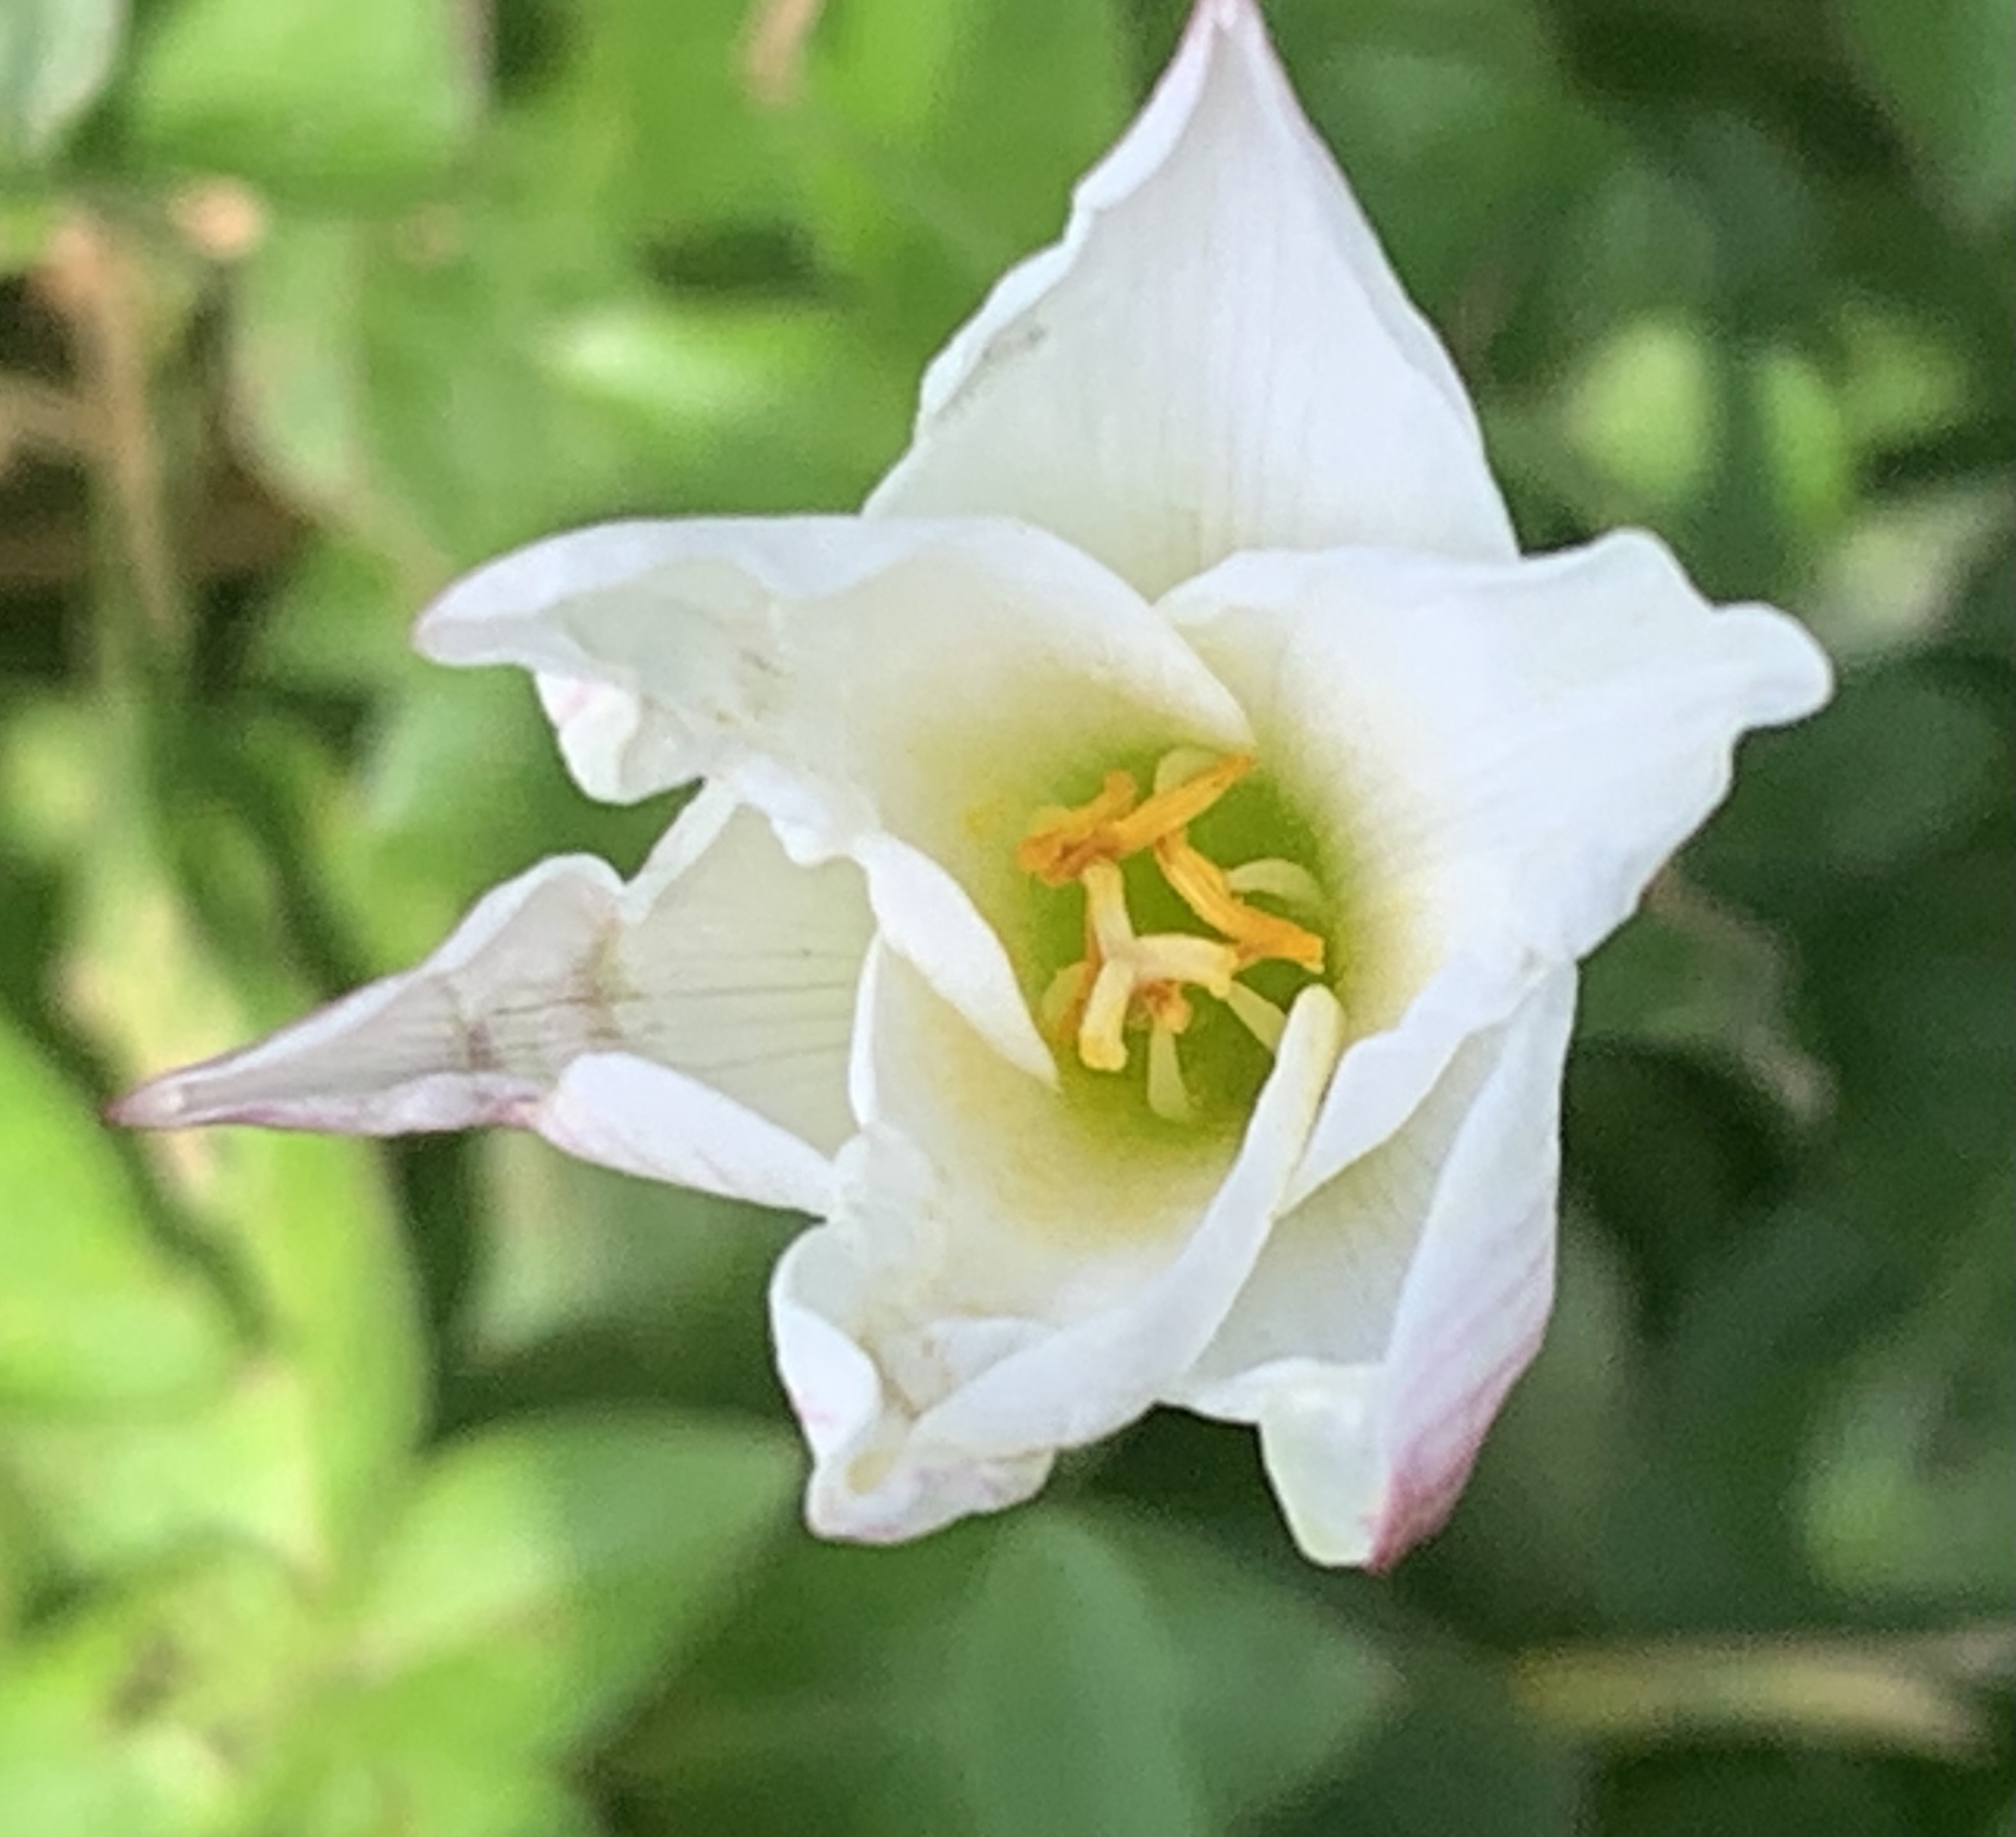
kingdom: Plantae
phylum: Tracheophyta
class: Liliopsida
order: Asparagales
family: Amaryllidaceae
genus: Zephyranthes
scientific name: Zephyranthes simpsonii
